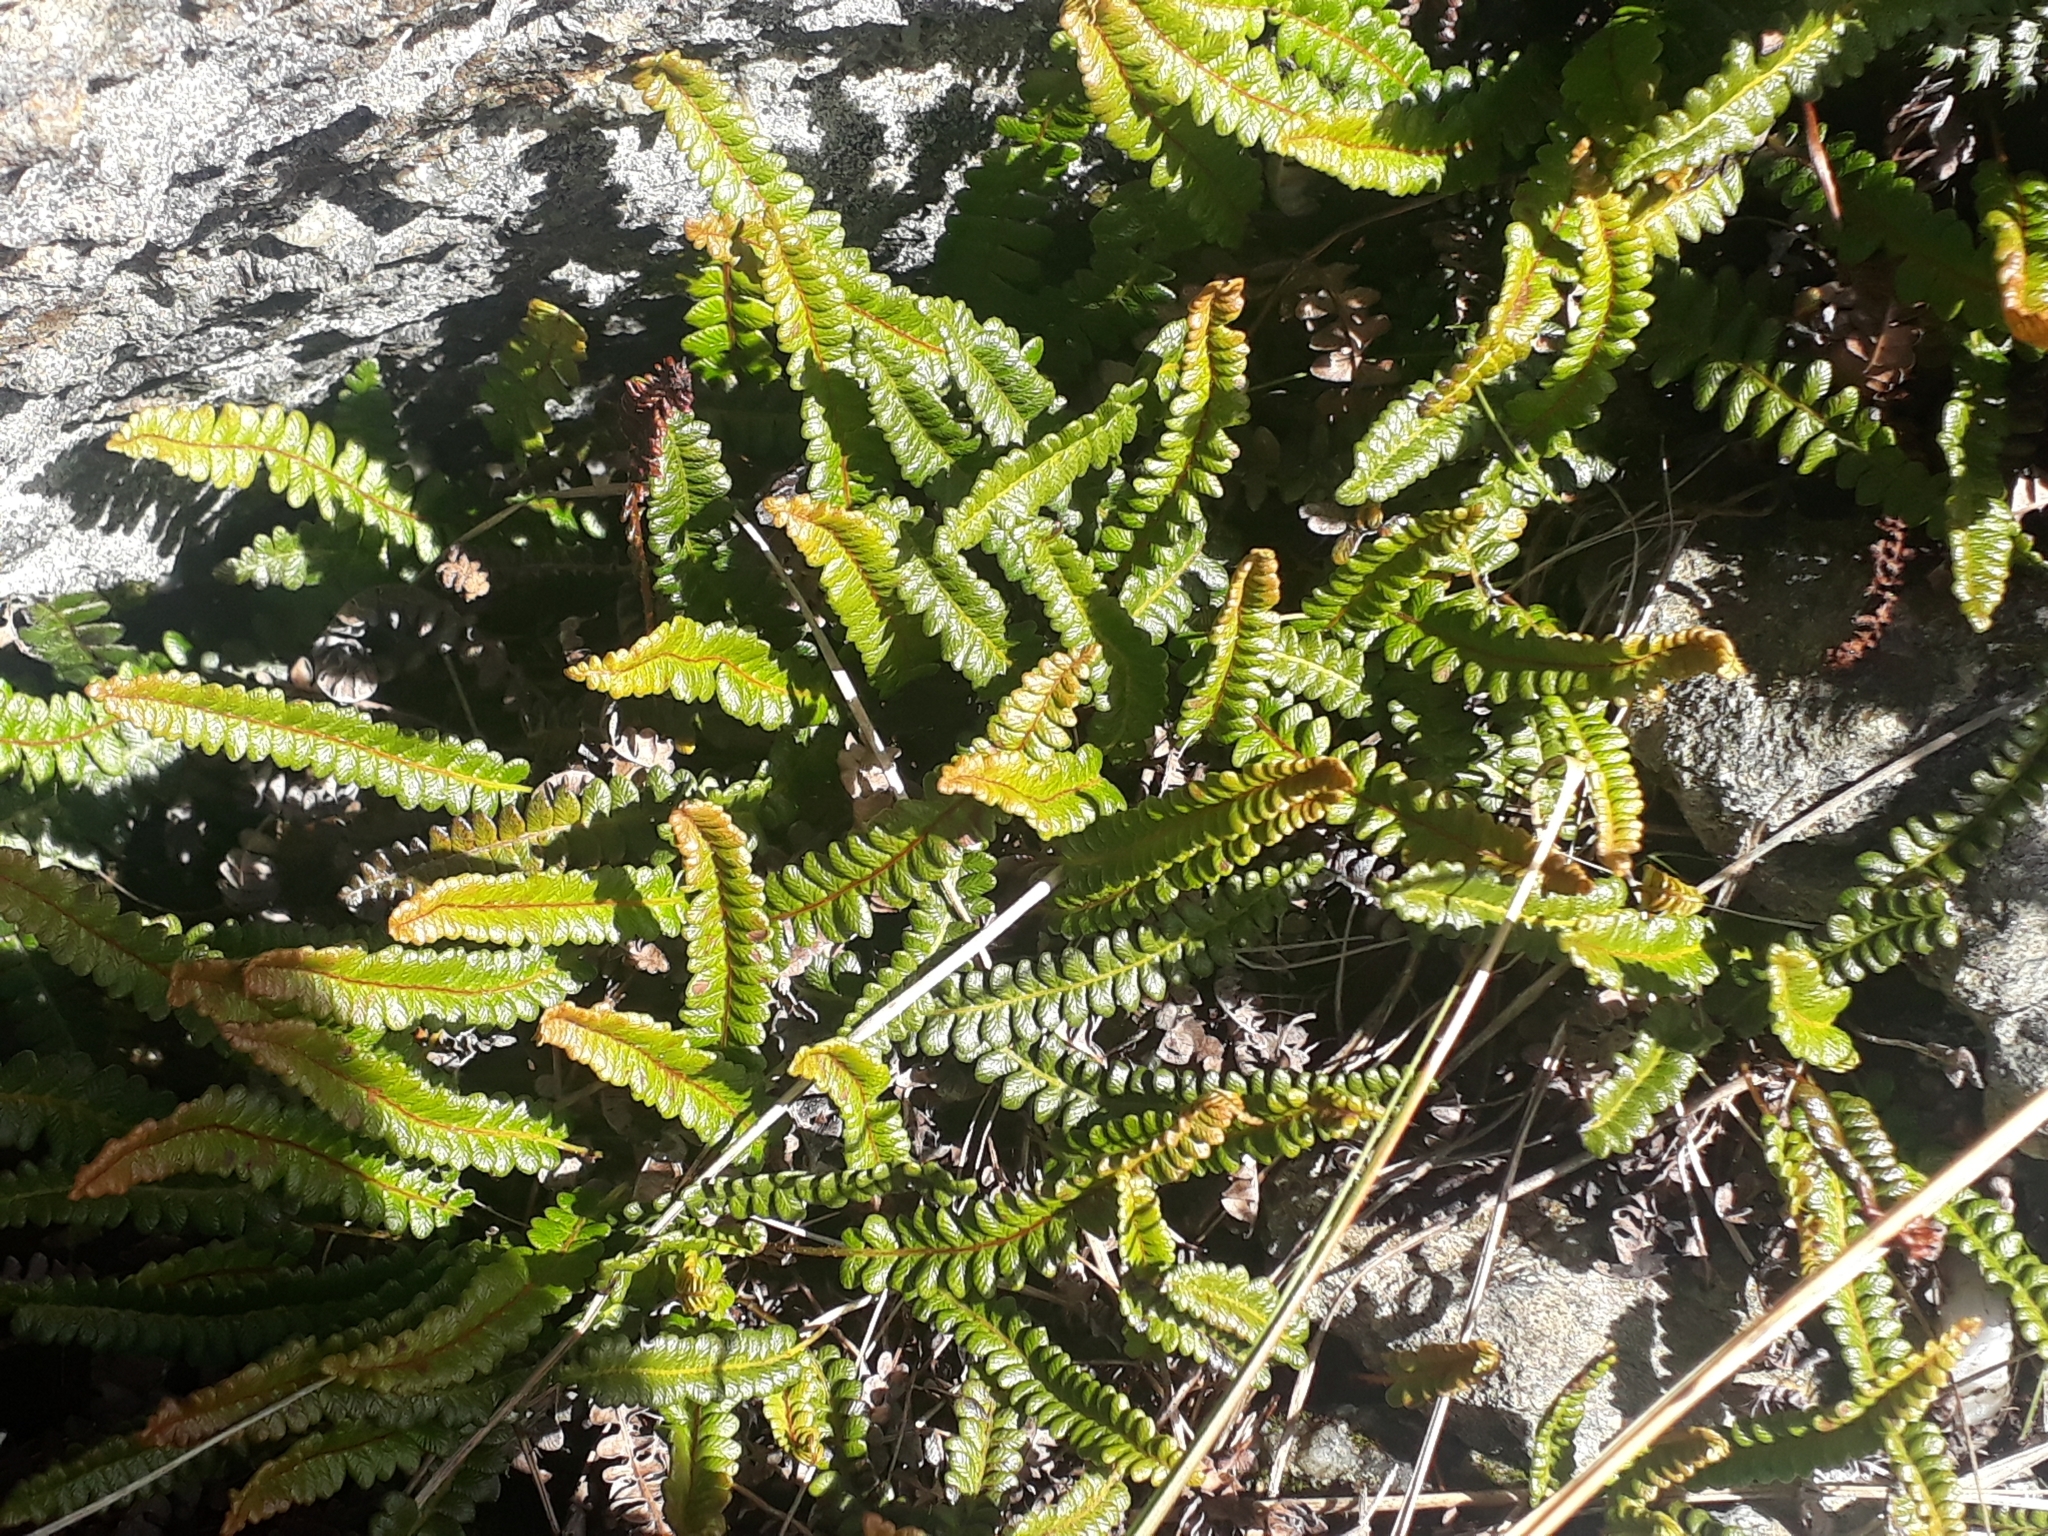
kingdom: Plantae
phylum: Tracheophyta
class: Polypodiopsida
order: Polypodiales
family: Blechnaceae
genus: Austroblechnum
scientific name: Austroblechnum penna-marina
